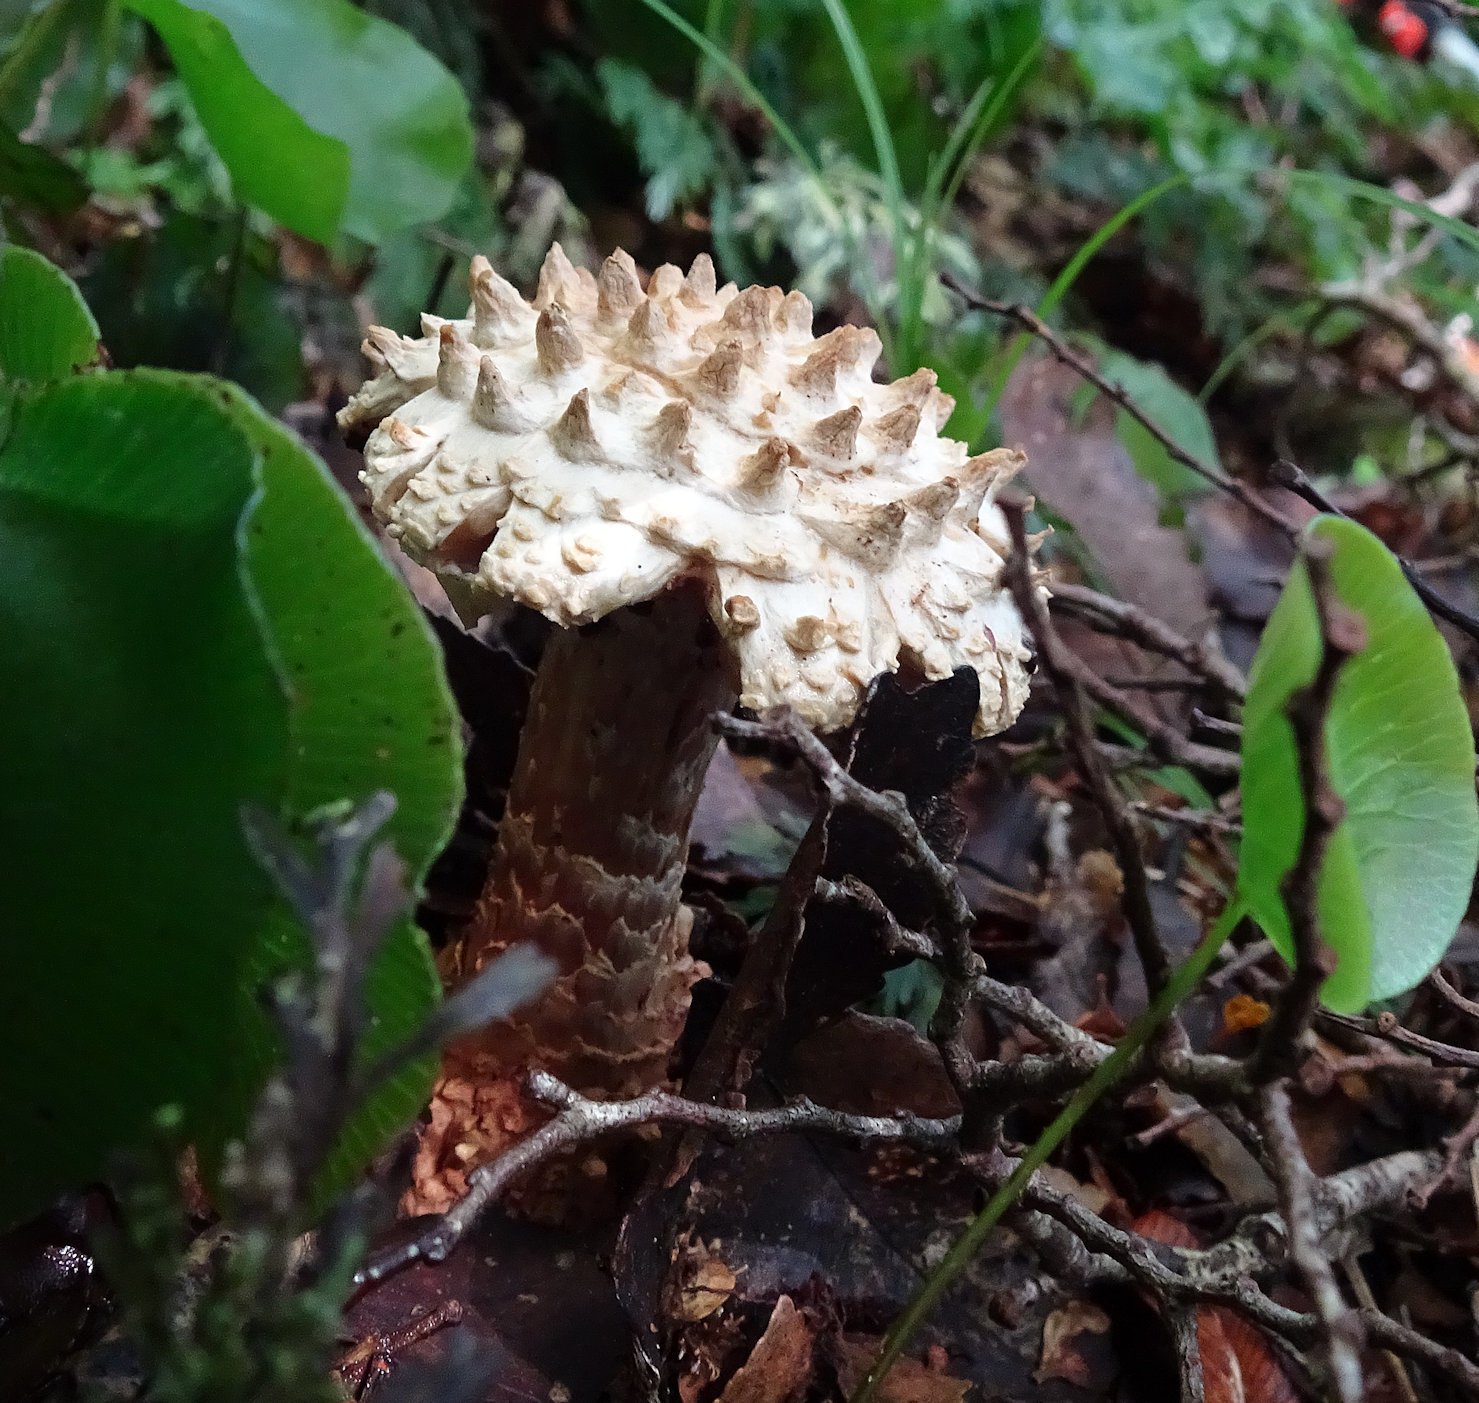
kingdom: Fungi
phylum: Basidiomycota
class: Agaricomycetes
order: Agaricales
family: Amanitaceae
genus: Amanita
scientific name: Amanita pareparina
